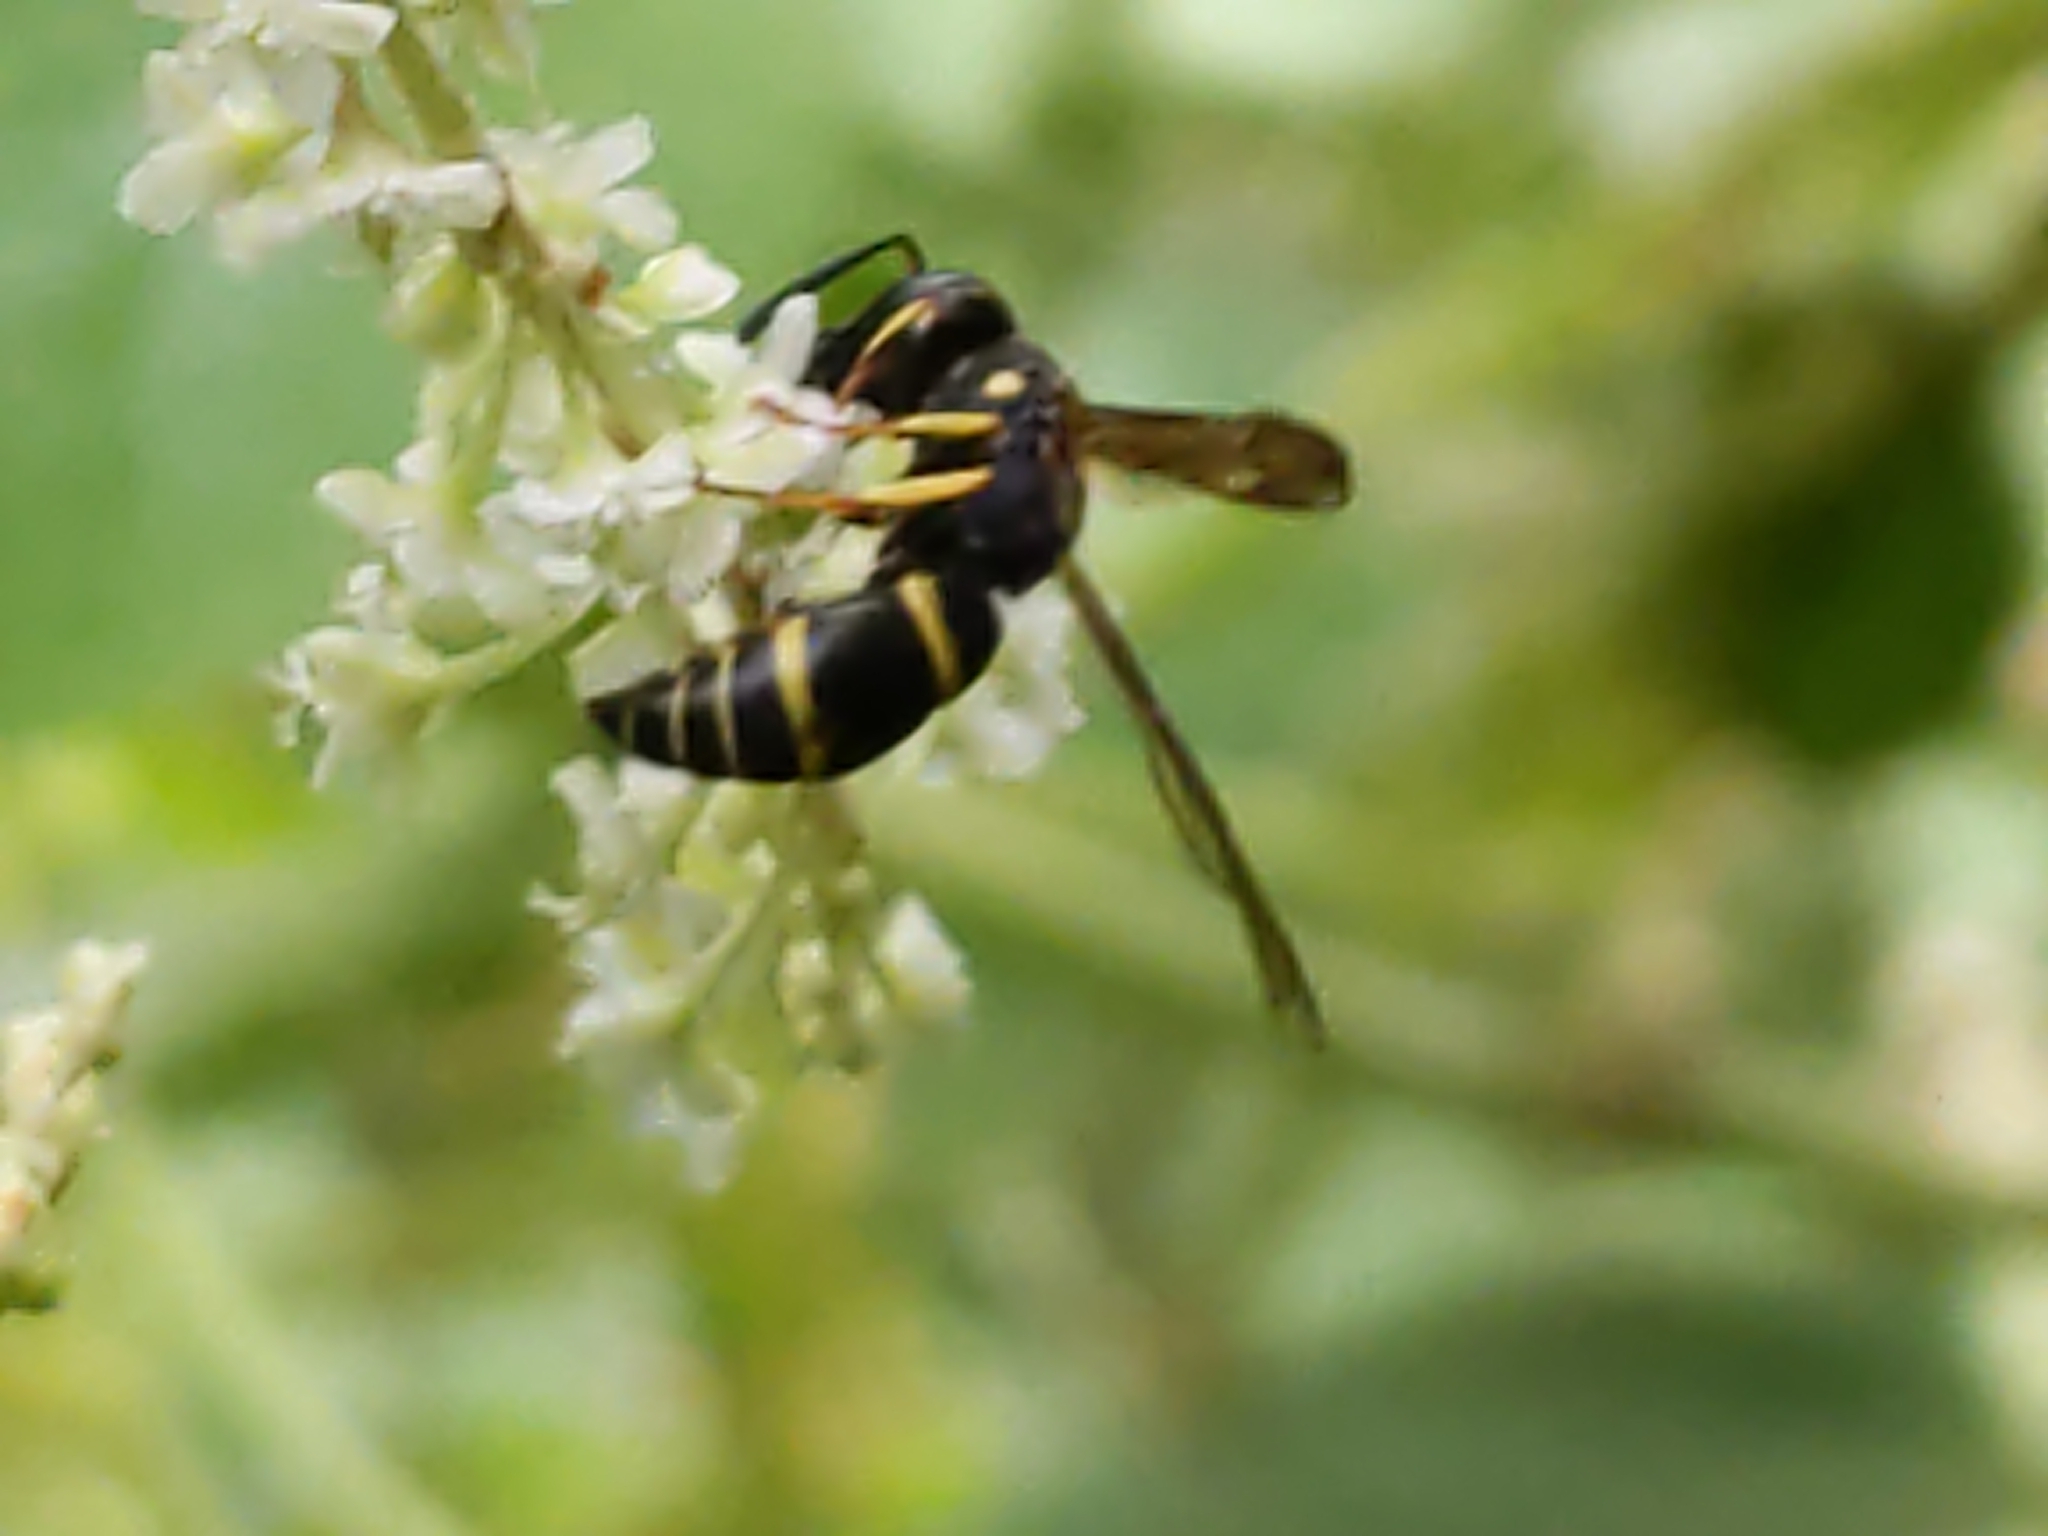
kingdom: Animalia
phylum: Arthropoda
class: Insecta
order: Hymenoptera
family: Vespidae
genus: Ancistrocerus
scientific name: Ancistrocerus adiabatus
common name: Bramble mason wasp
